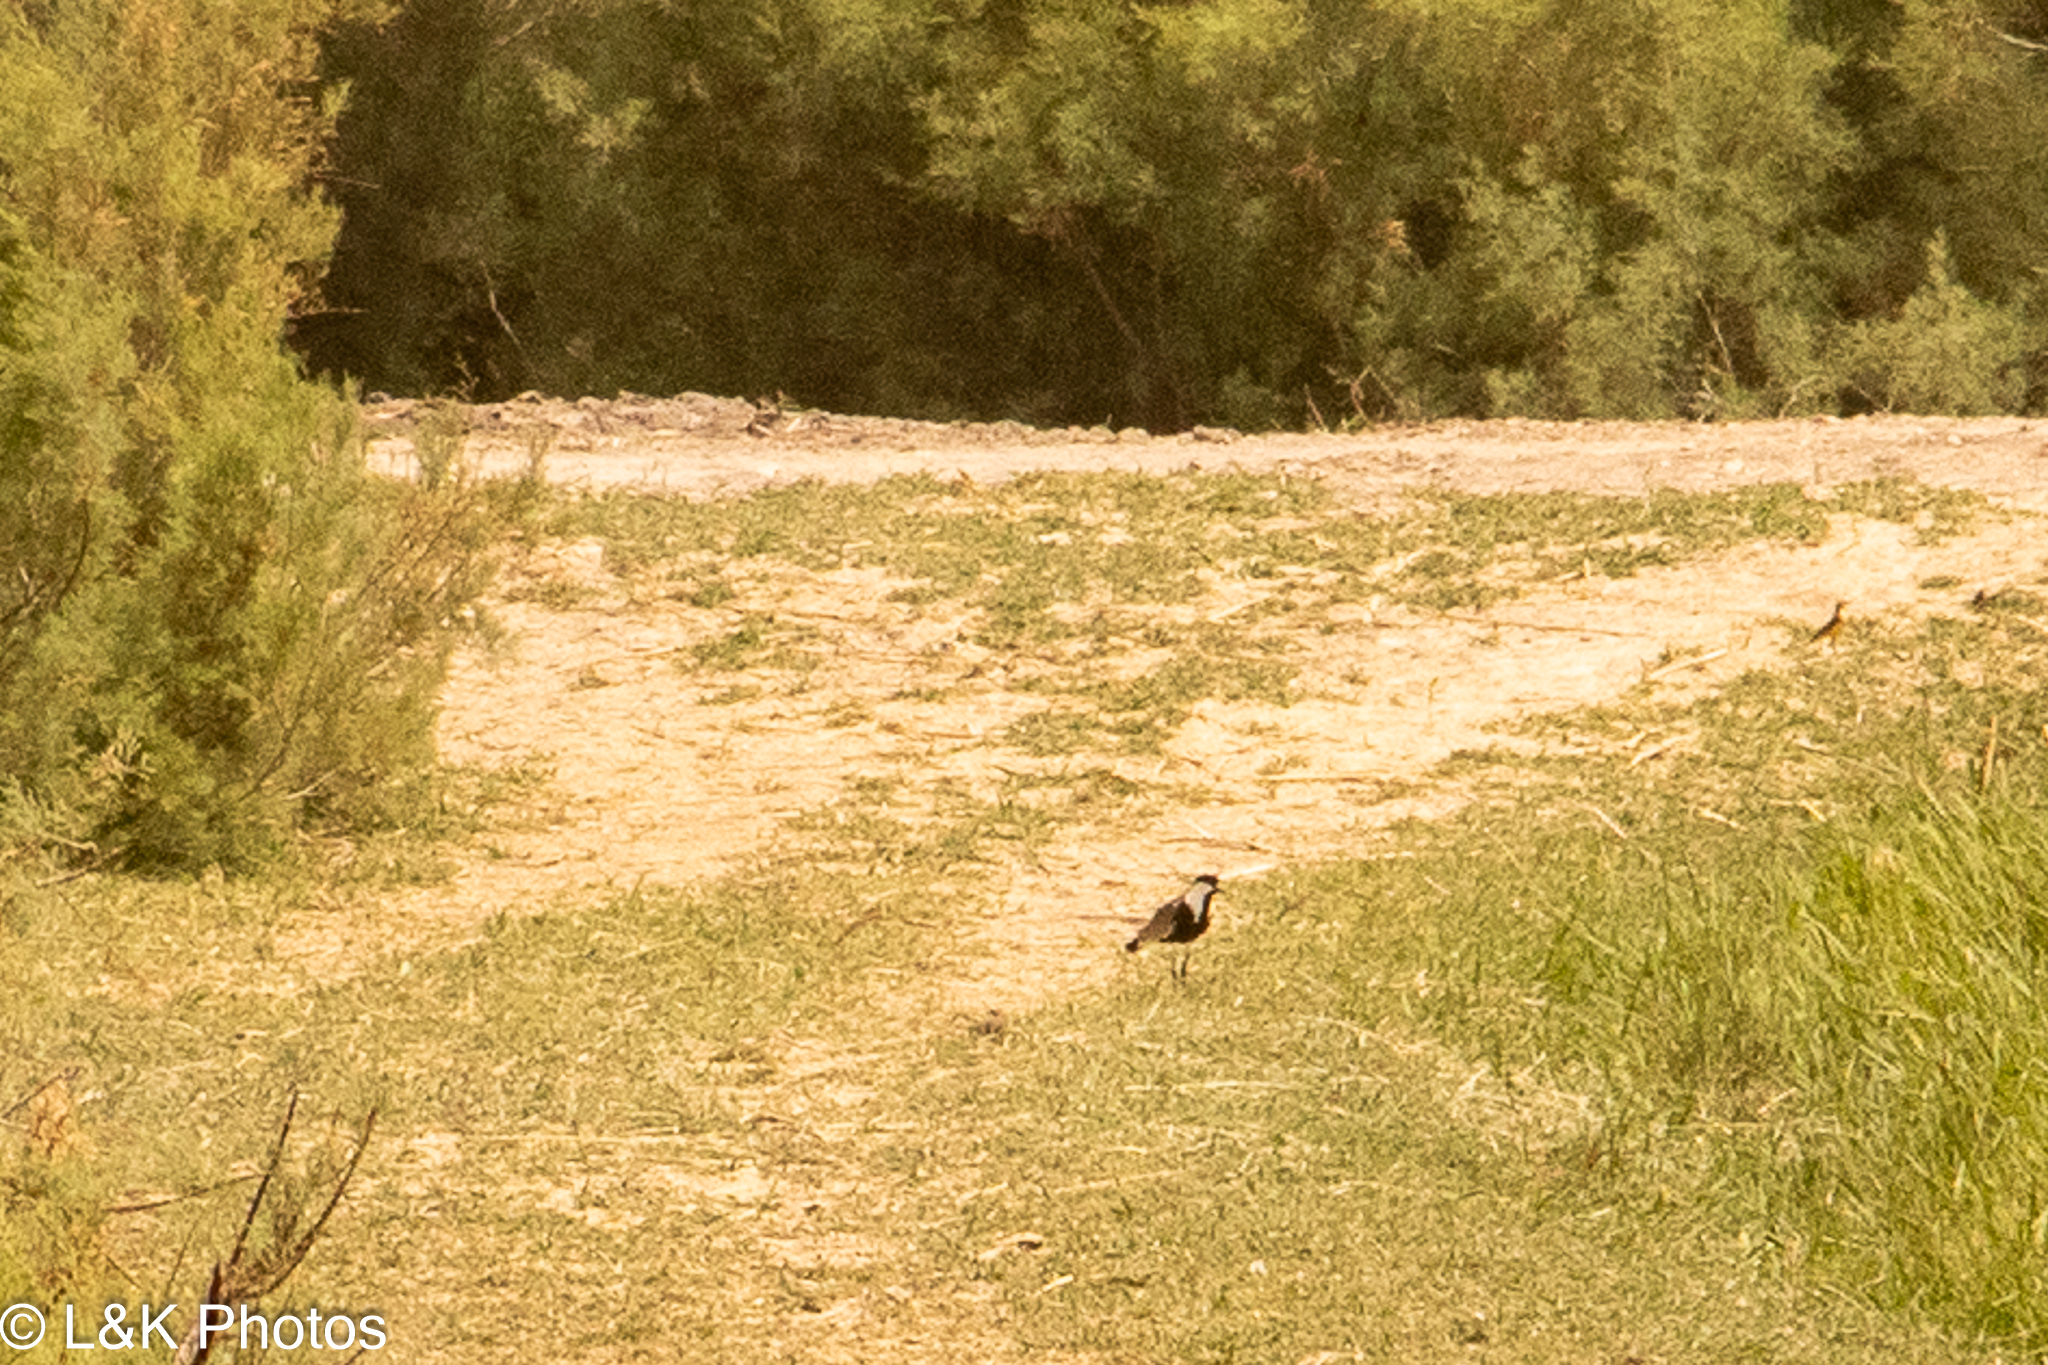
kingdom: Animalia
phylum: Chordata
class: Aves
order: Charadriiformes
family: Charadriidae
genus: Vanellus
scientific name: Vanellus spinosus
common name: Spur-winged lapwing
